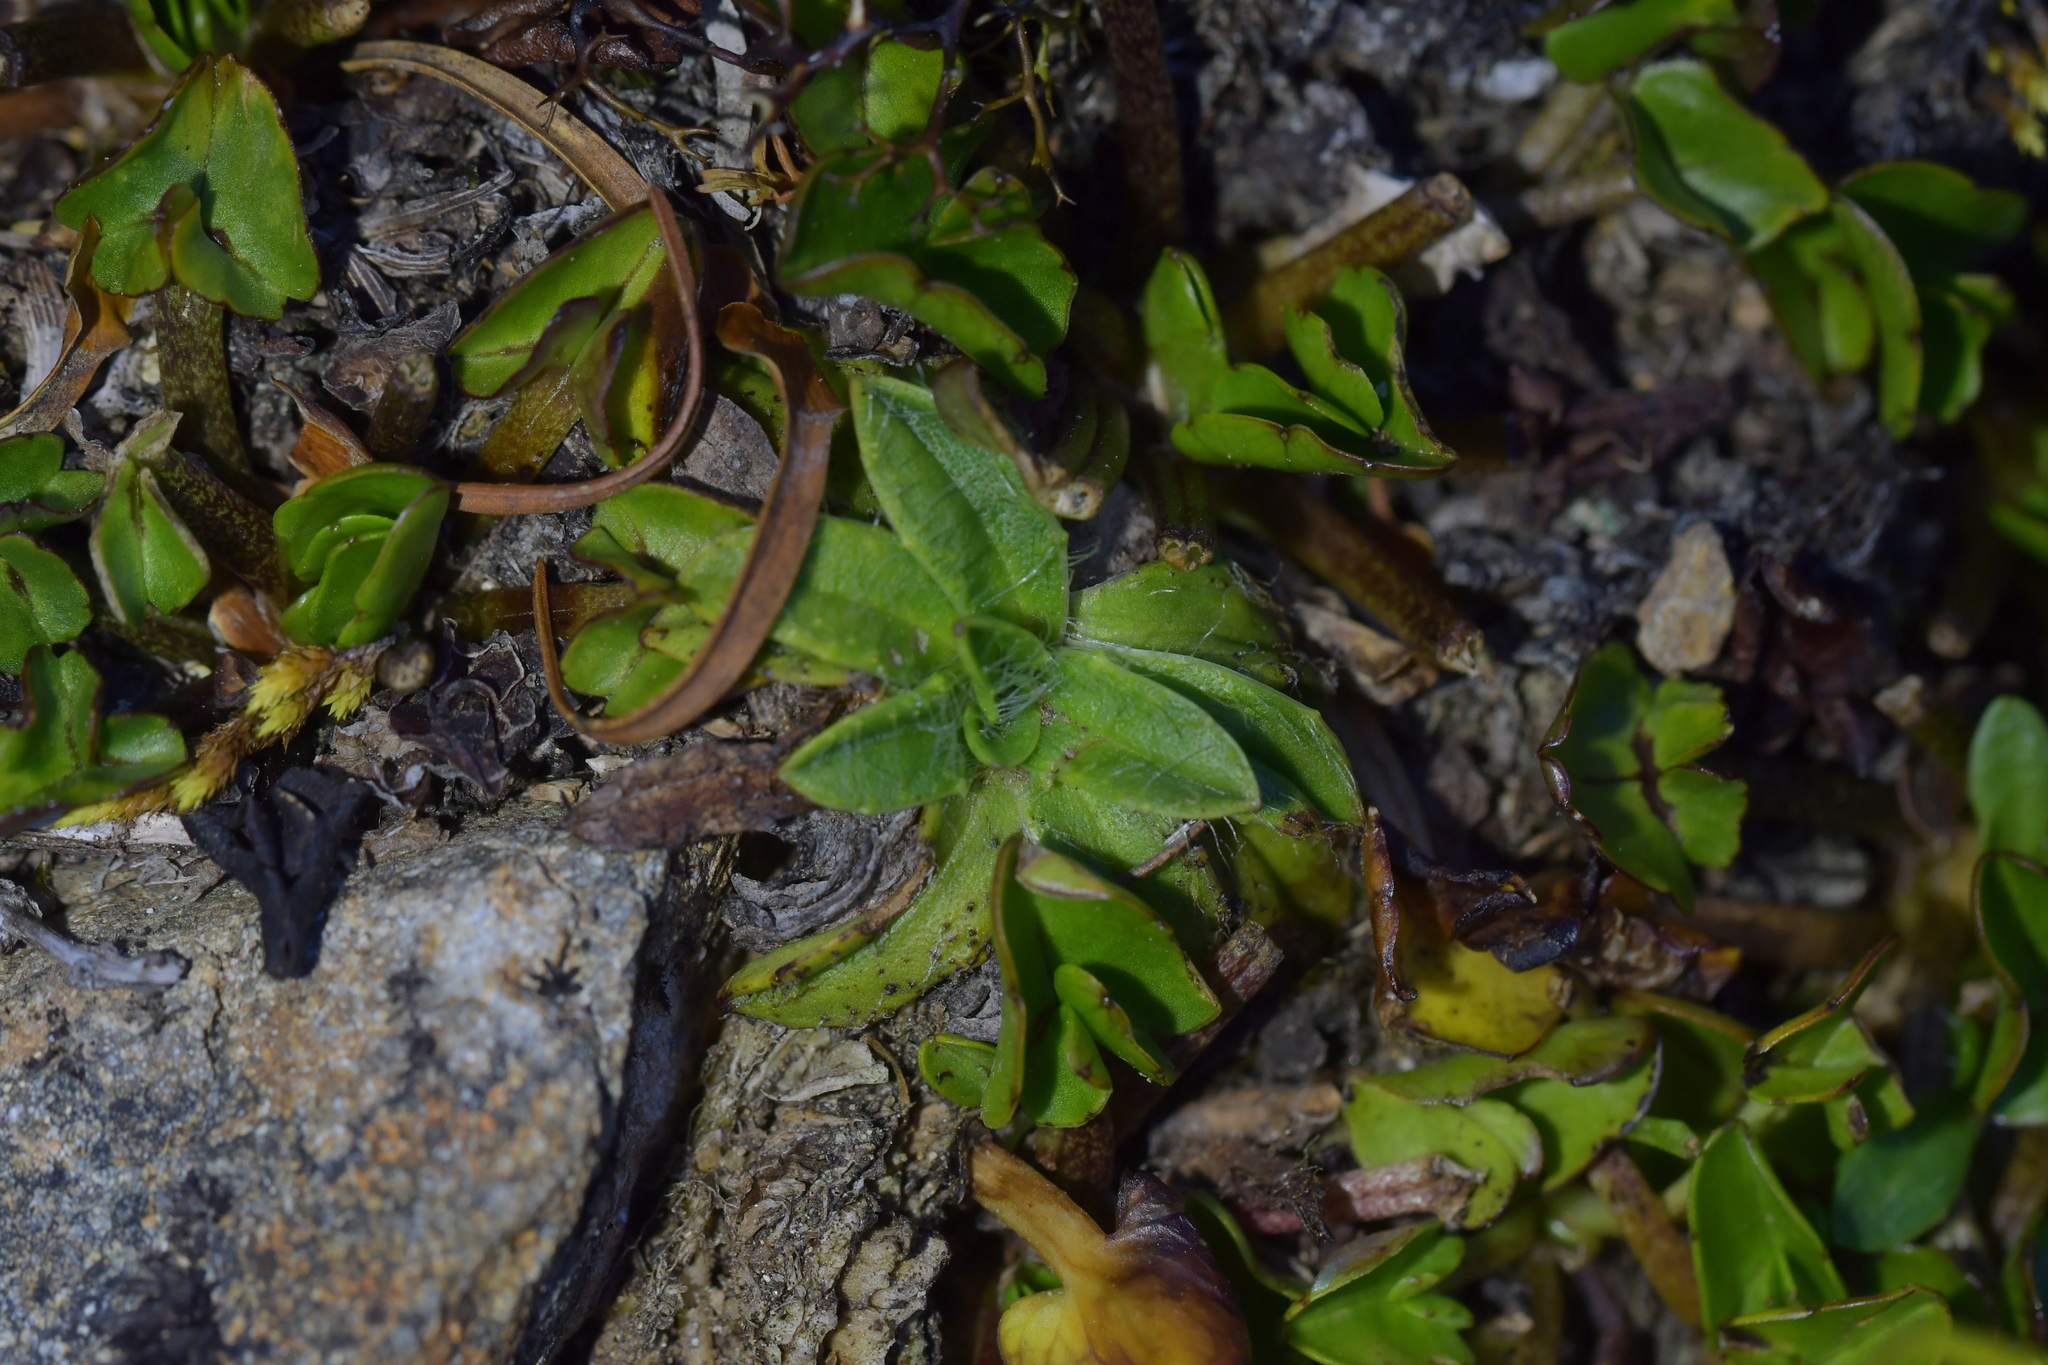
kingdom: Plantae
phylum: Tracheophyta
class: Magnoliopsida
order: Lamiales
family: Plantaginaceae
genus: Plantago
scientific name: Plantago lanigera
